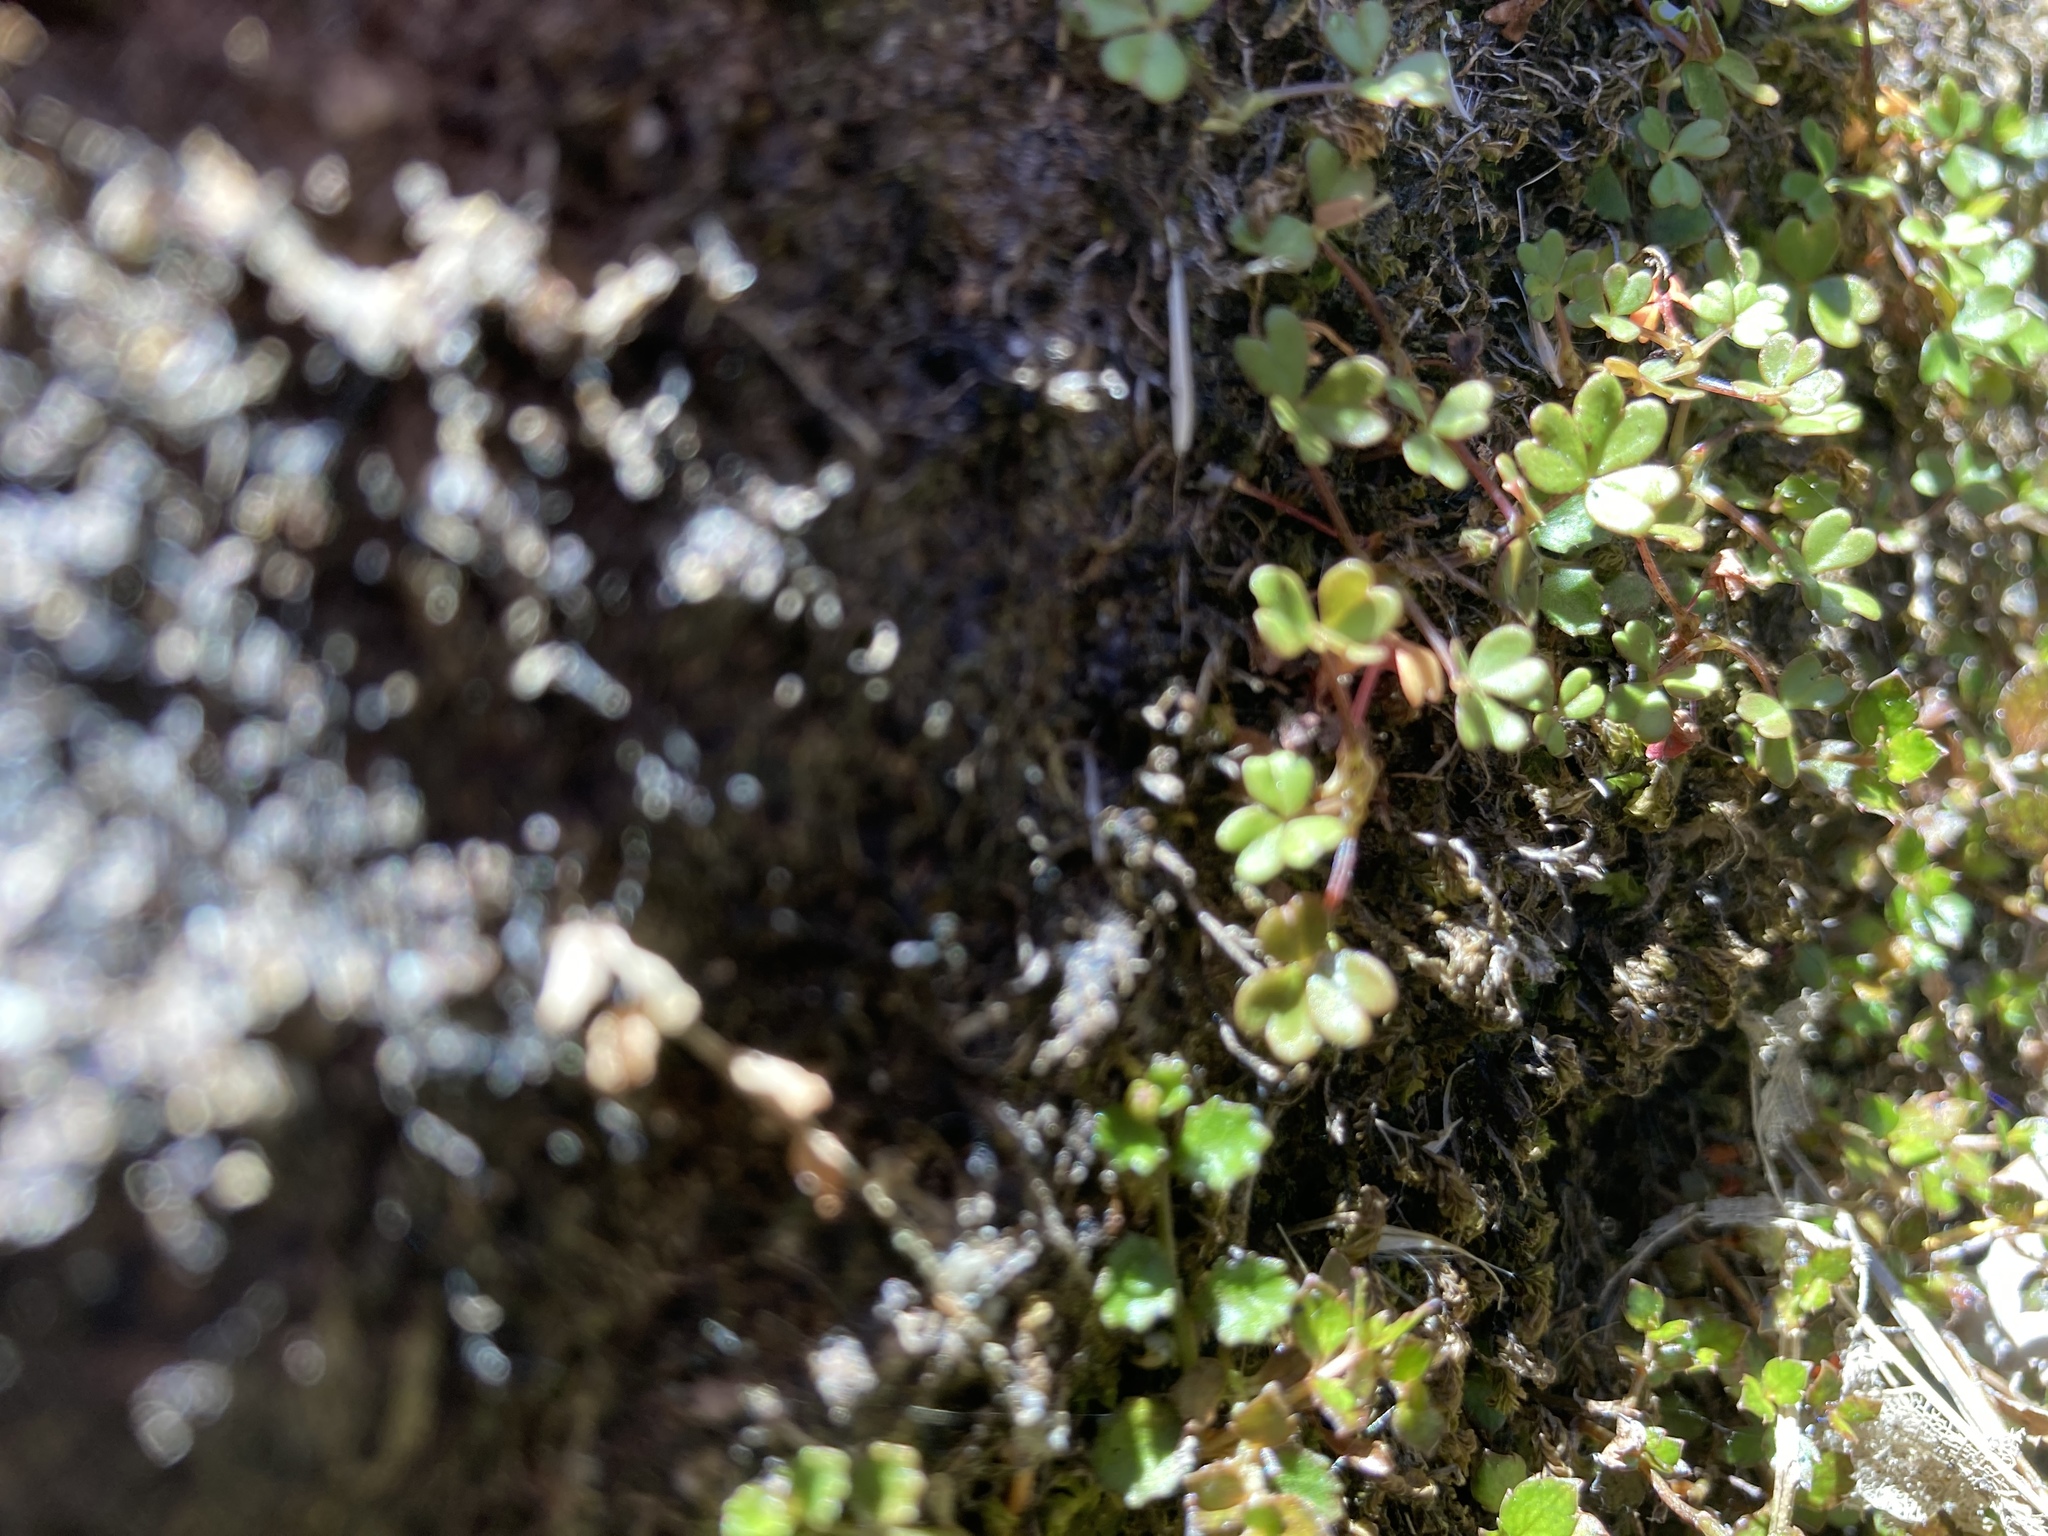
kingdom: Plantae
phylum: Tracheophyta
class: Magnoliopsida
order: Oxalidales
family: Oxalidaceae
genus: Oxalis
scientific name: Oxalis magellanica
